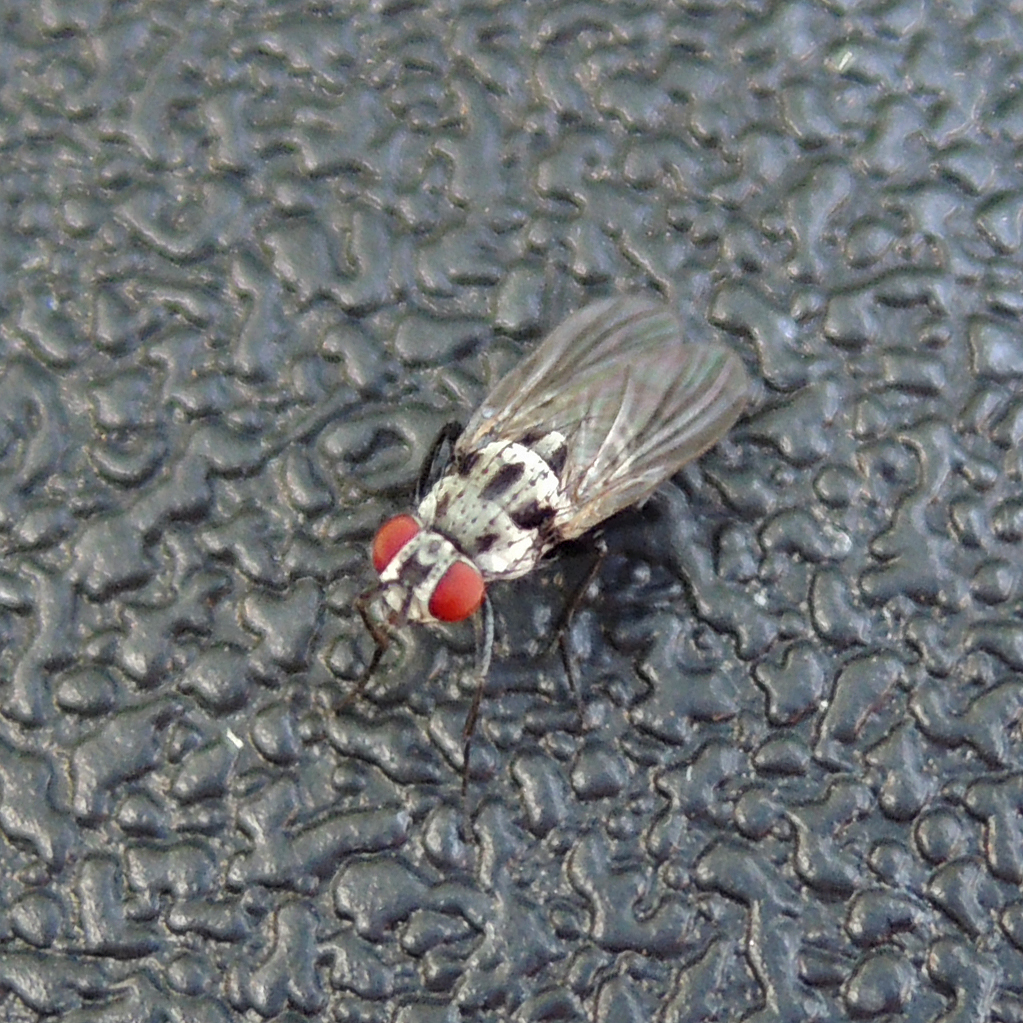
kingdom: Animalia
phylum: Arthropoda
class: Insecta
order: Diptera
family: Anthomyiidae
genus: Anthomyia
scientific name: Anthomyia pluvialis
